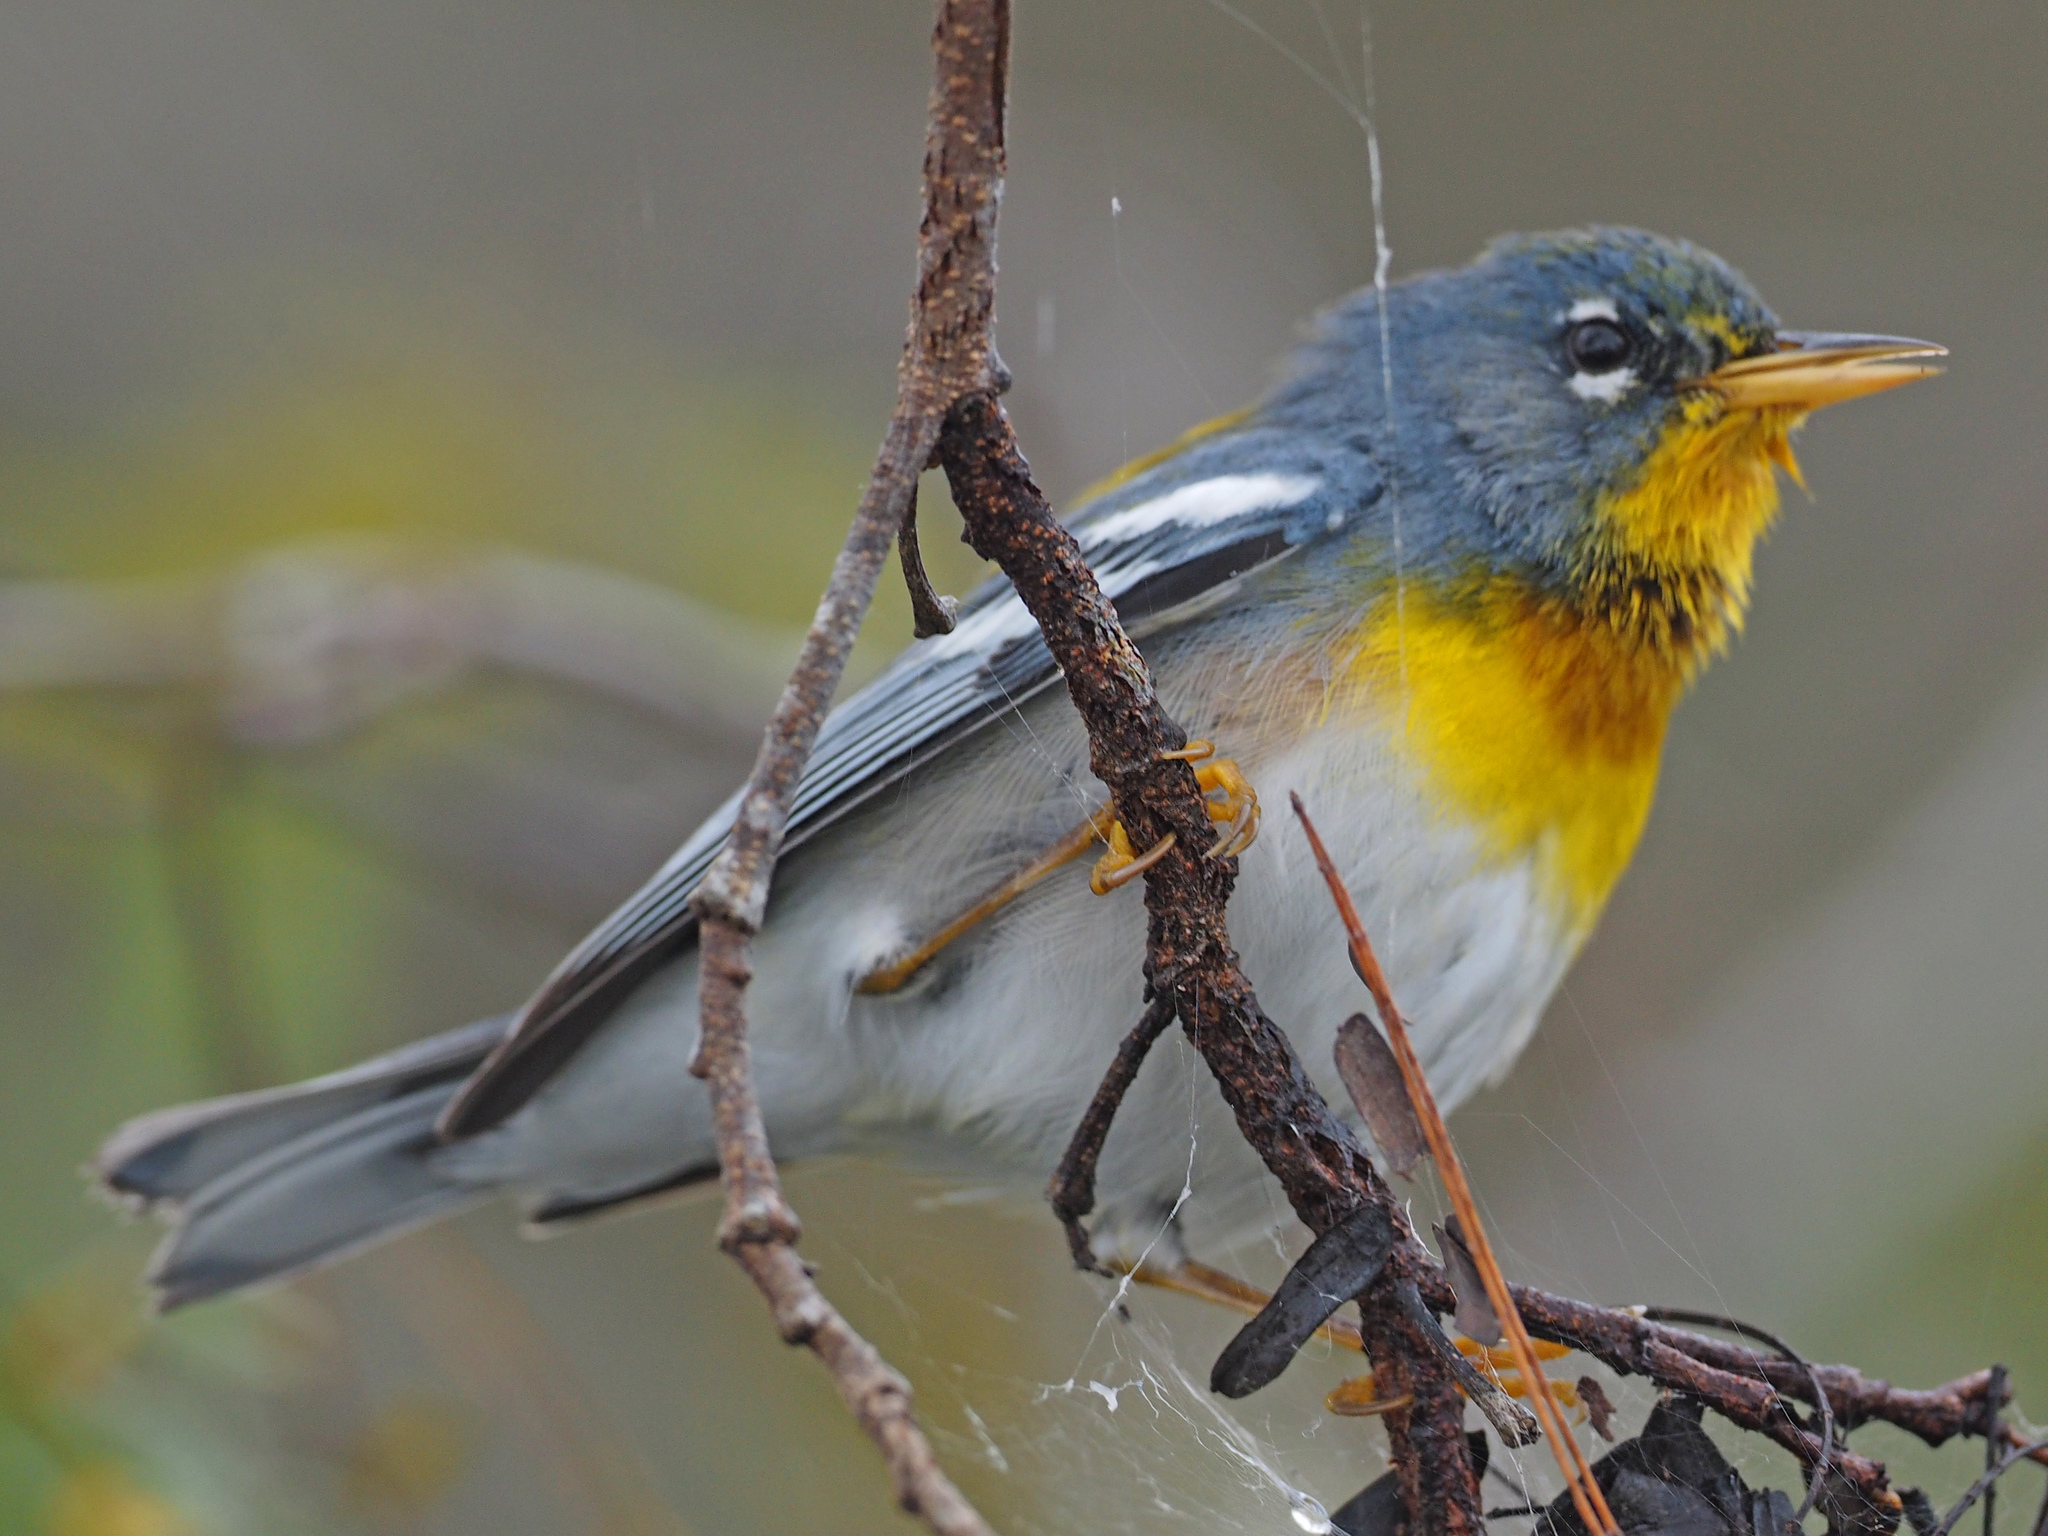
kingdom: Animalia
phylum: Chordata
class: Aves
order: Passeriformes
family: Parulidae
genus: Setophaga
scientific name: Setophaga americana
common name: Northern parula
